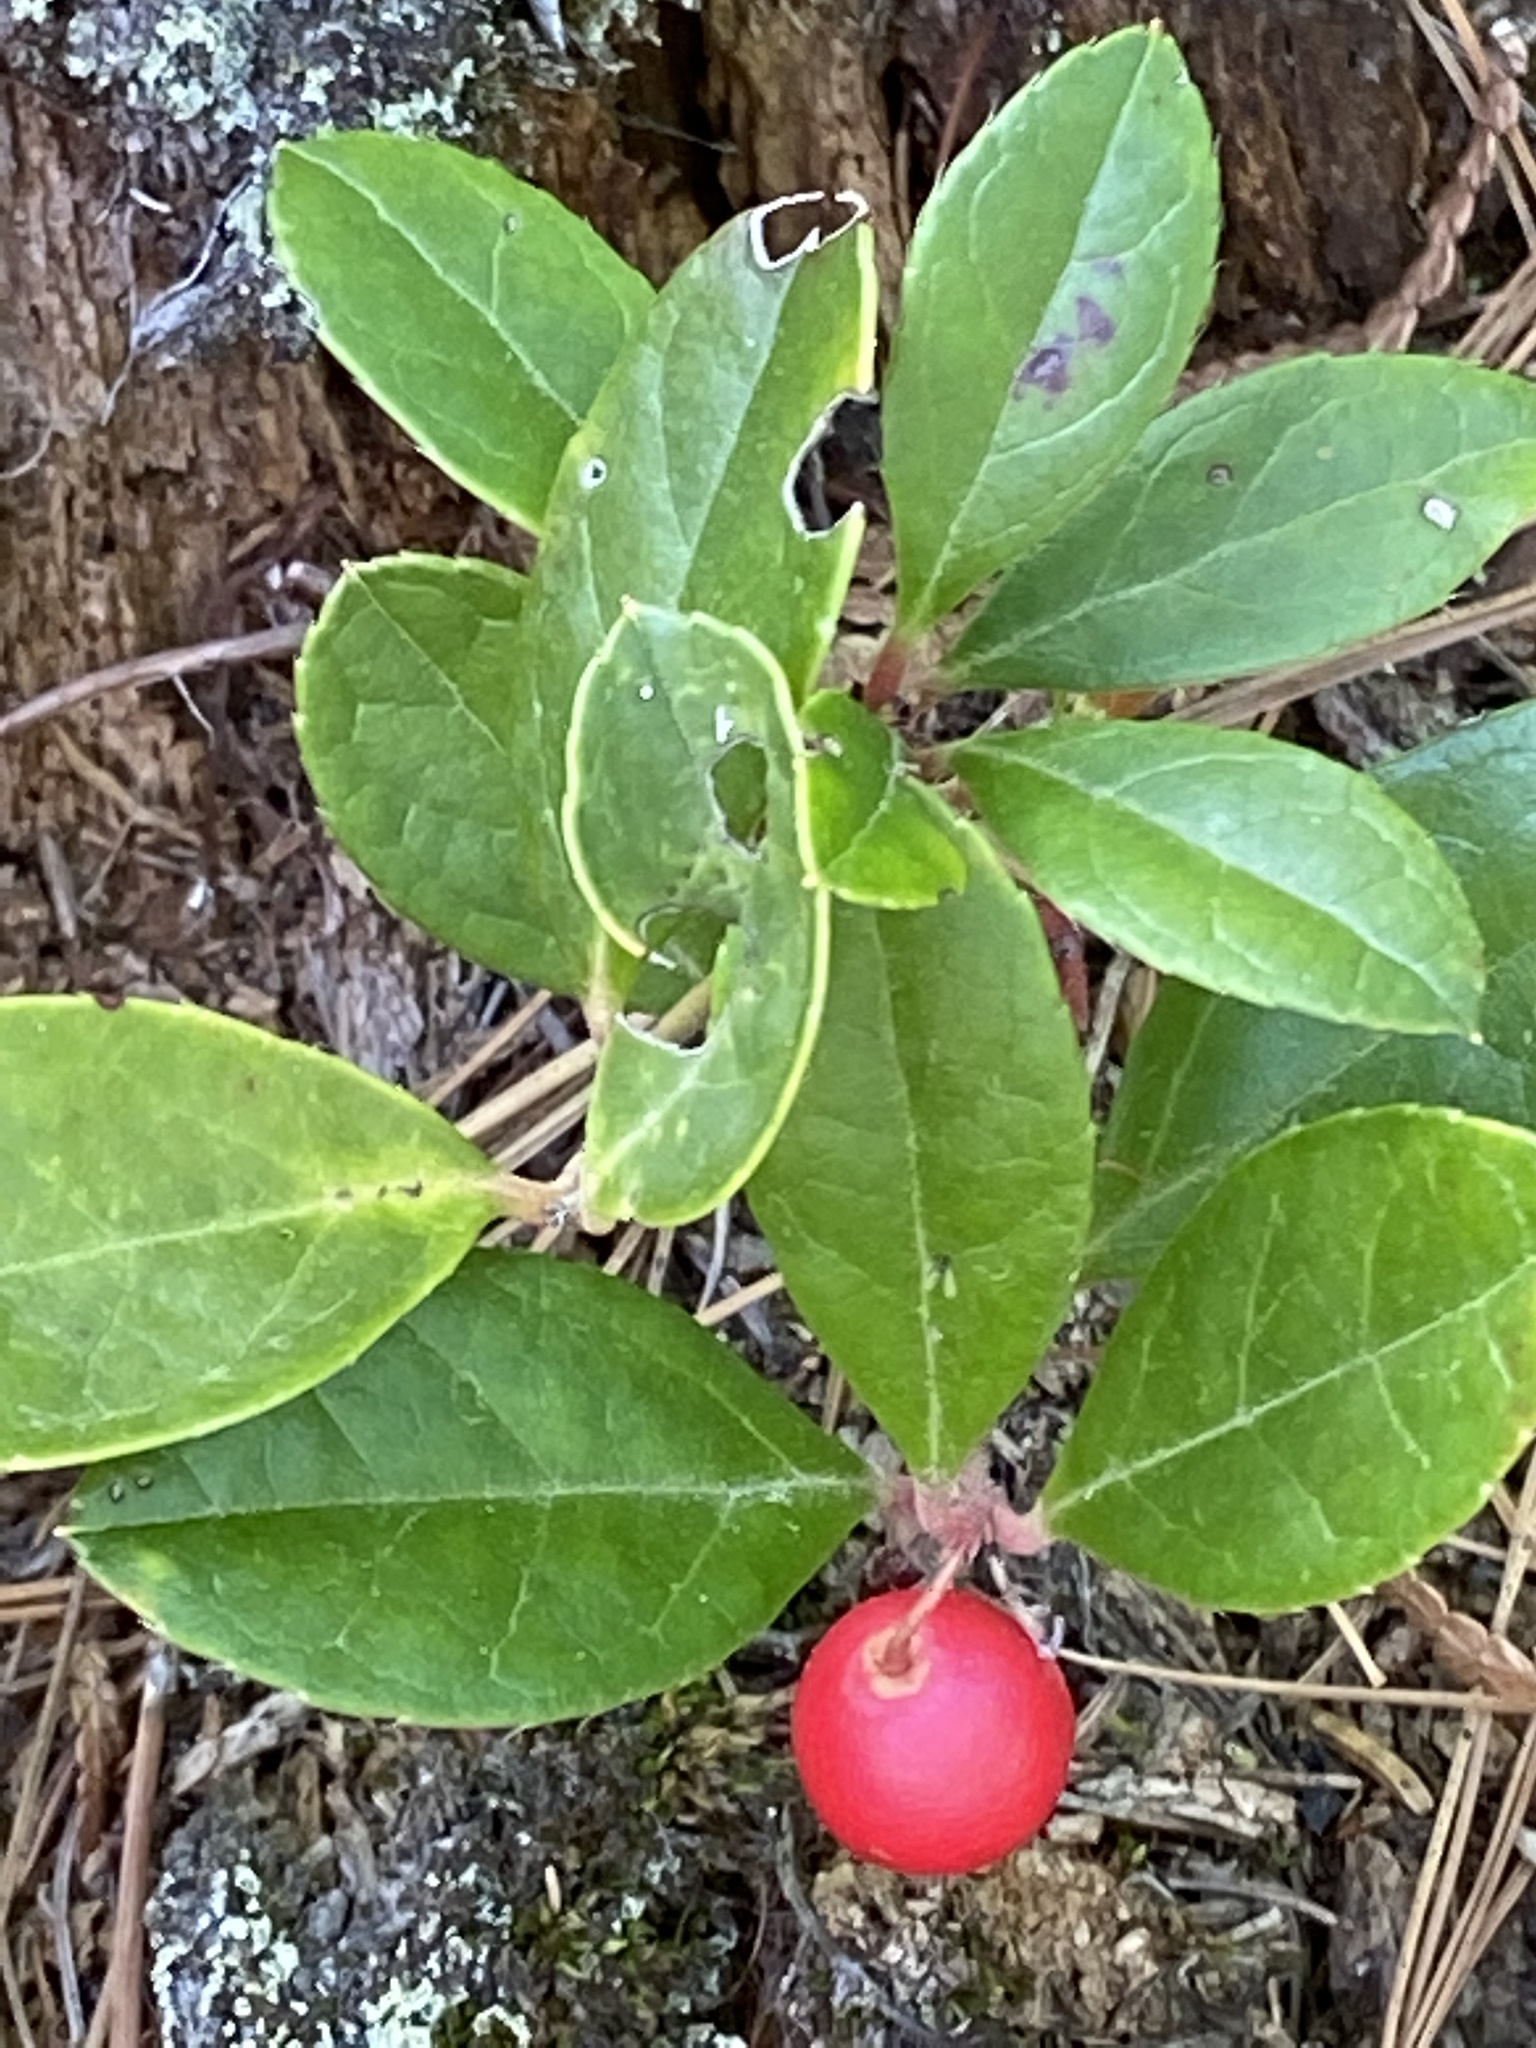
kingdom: Plantae
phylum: Tracheophyta
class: Magnoliopsida
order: Ericales
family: Ericaceae
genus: Gaultheria
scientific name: Gaultheria procumbens
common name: Checkerberry
